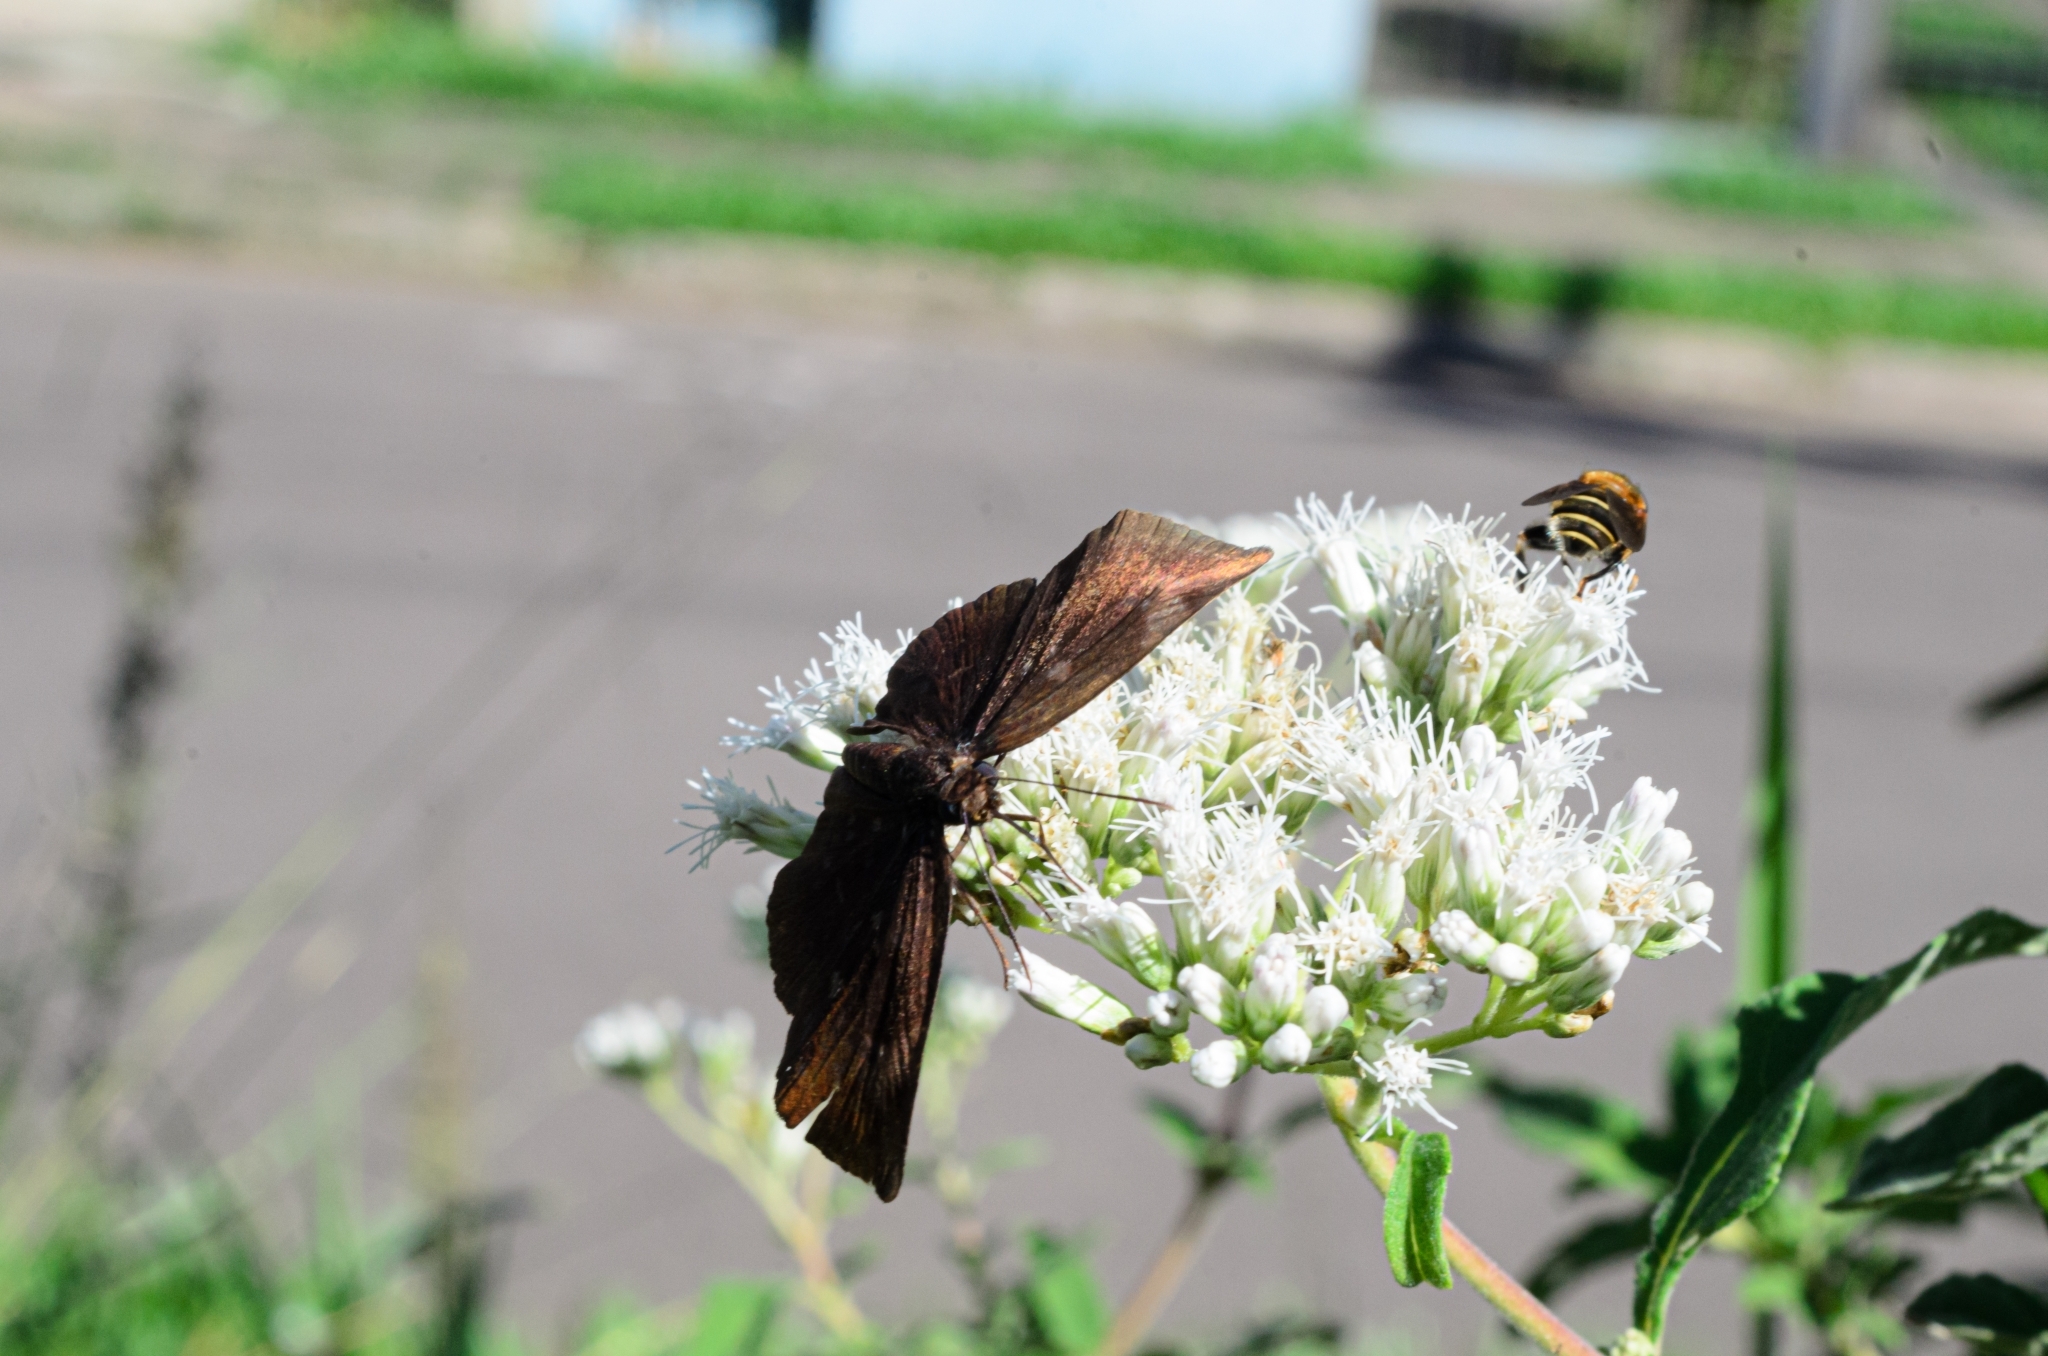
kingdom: Animalia
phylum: Arthropoda
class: Insecta
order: Lepidoptera
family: Hesperiidae
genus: Achlyodes
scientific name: Achlyodes thraso
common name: Sickle-winged skipper
